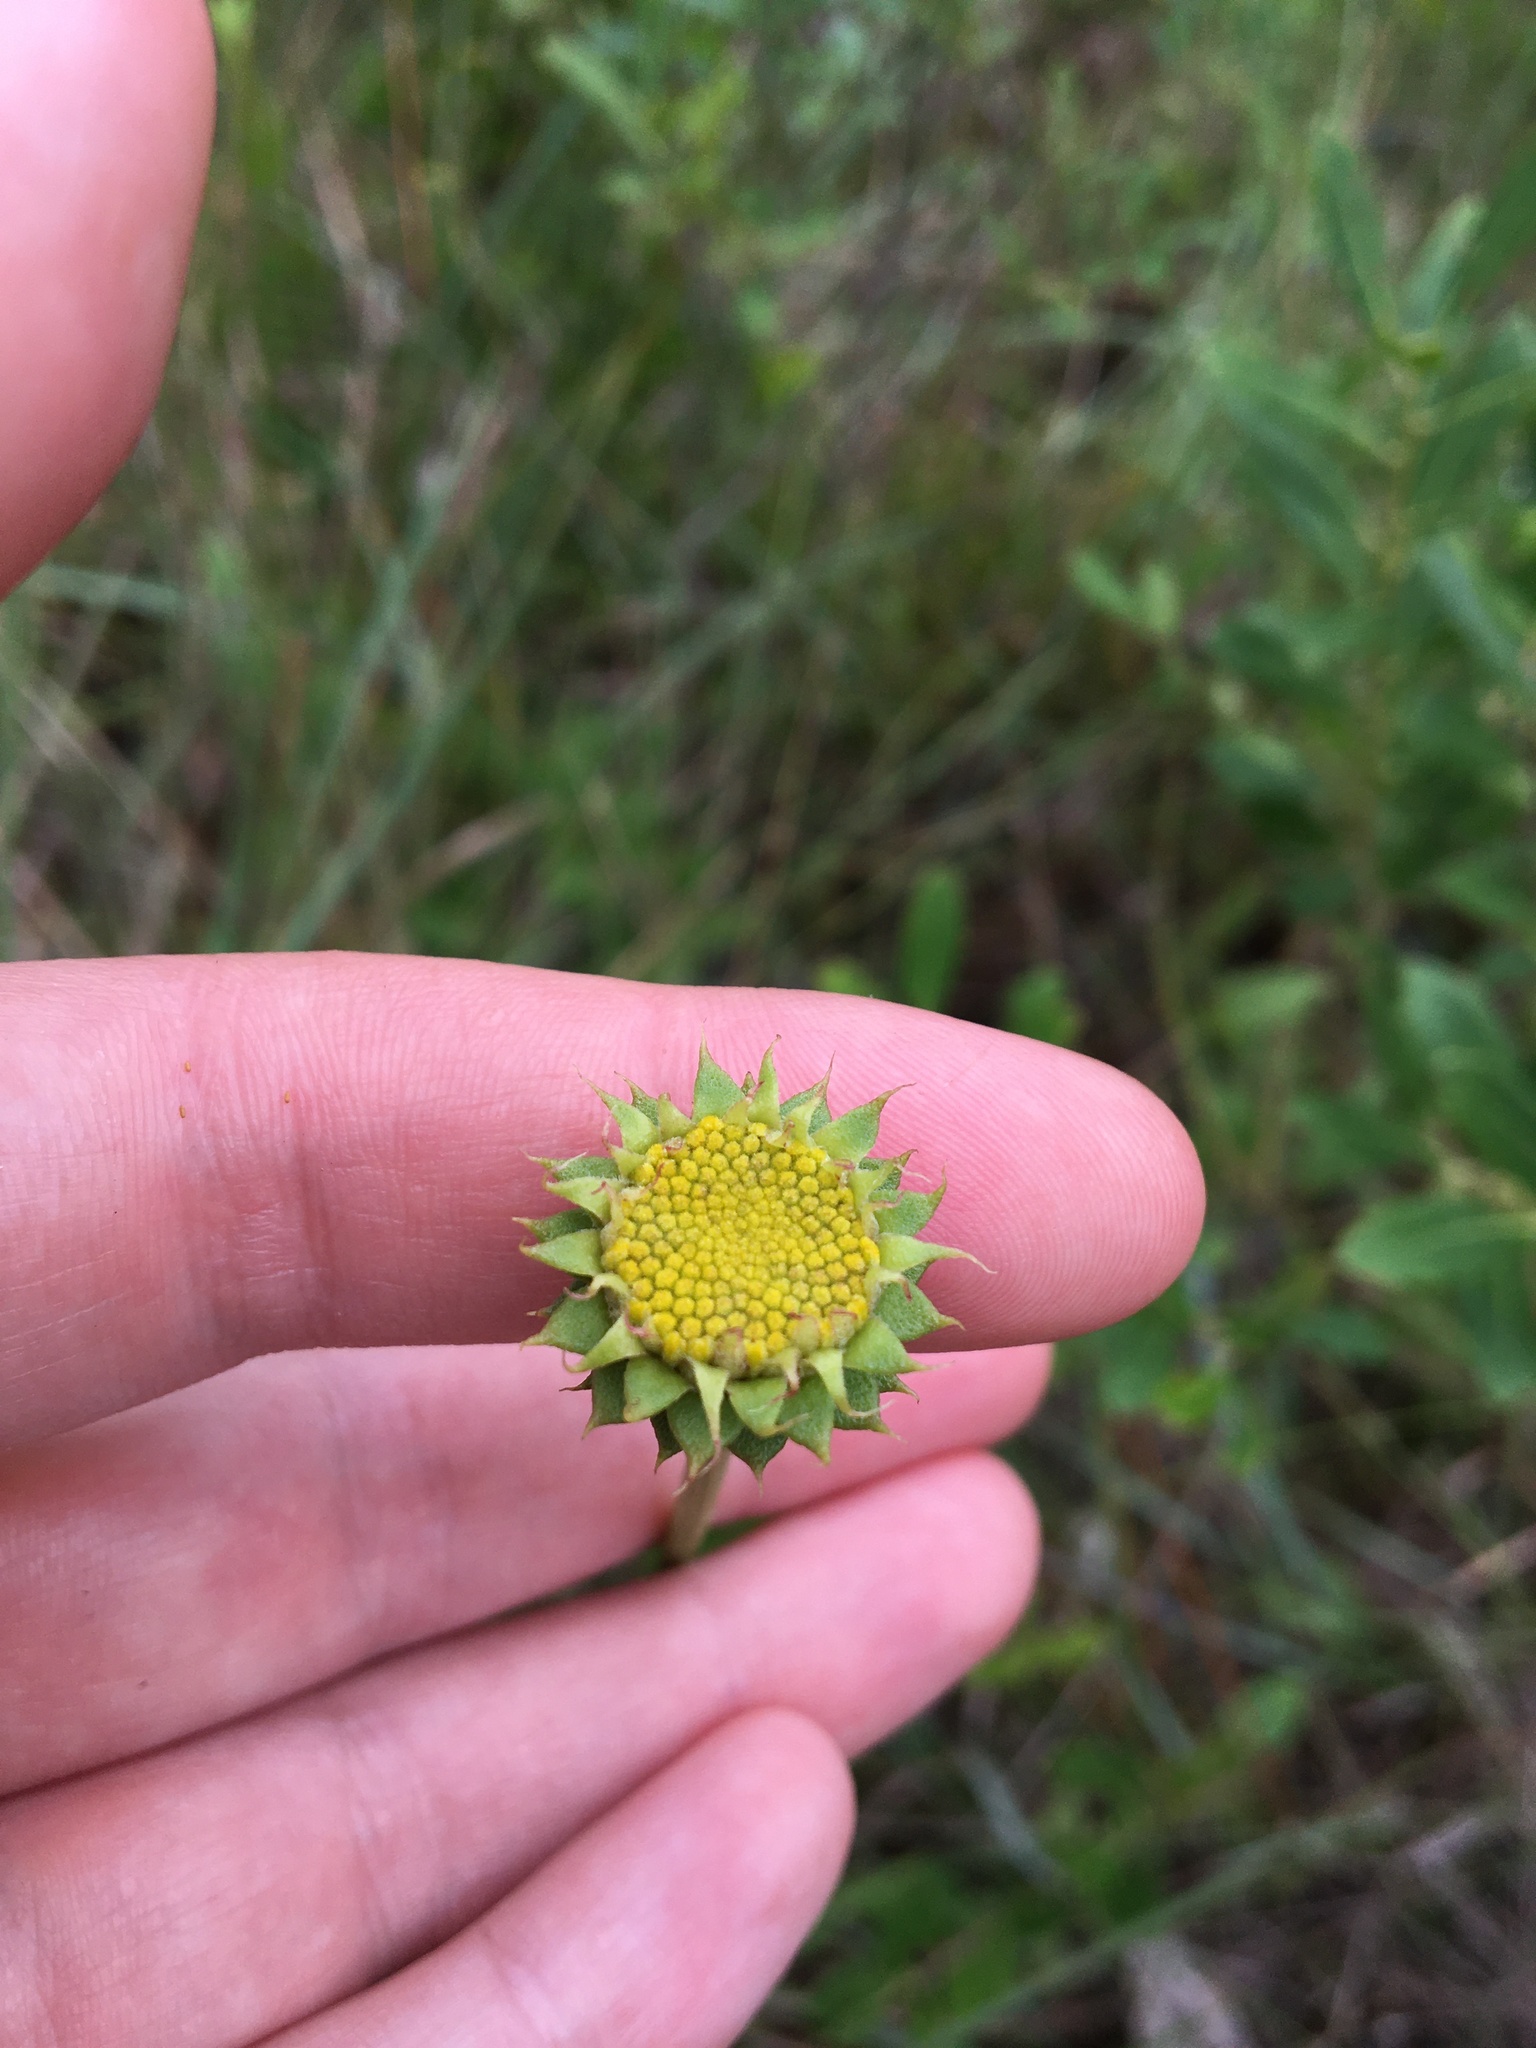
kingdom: Plantae
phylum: Tracheophyta
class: Magnoliopsida
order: Asterales
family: Asteraceae
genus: Balduina
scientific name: Balduina uniflora
